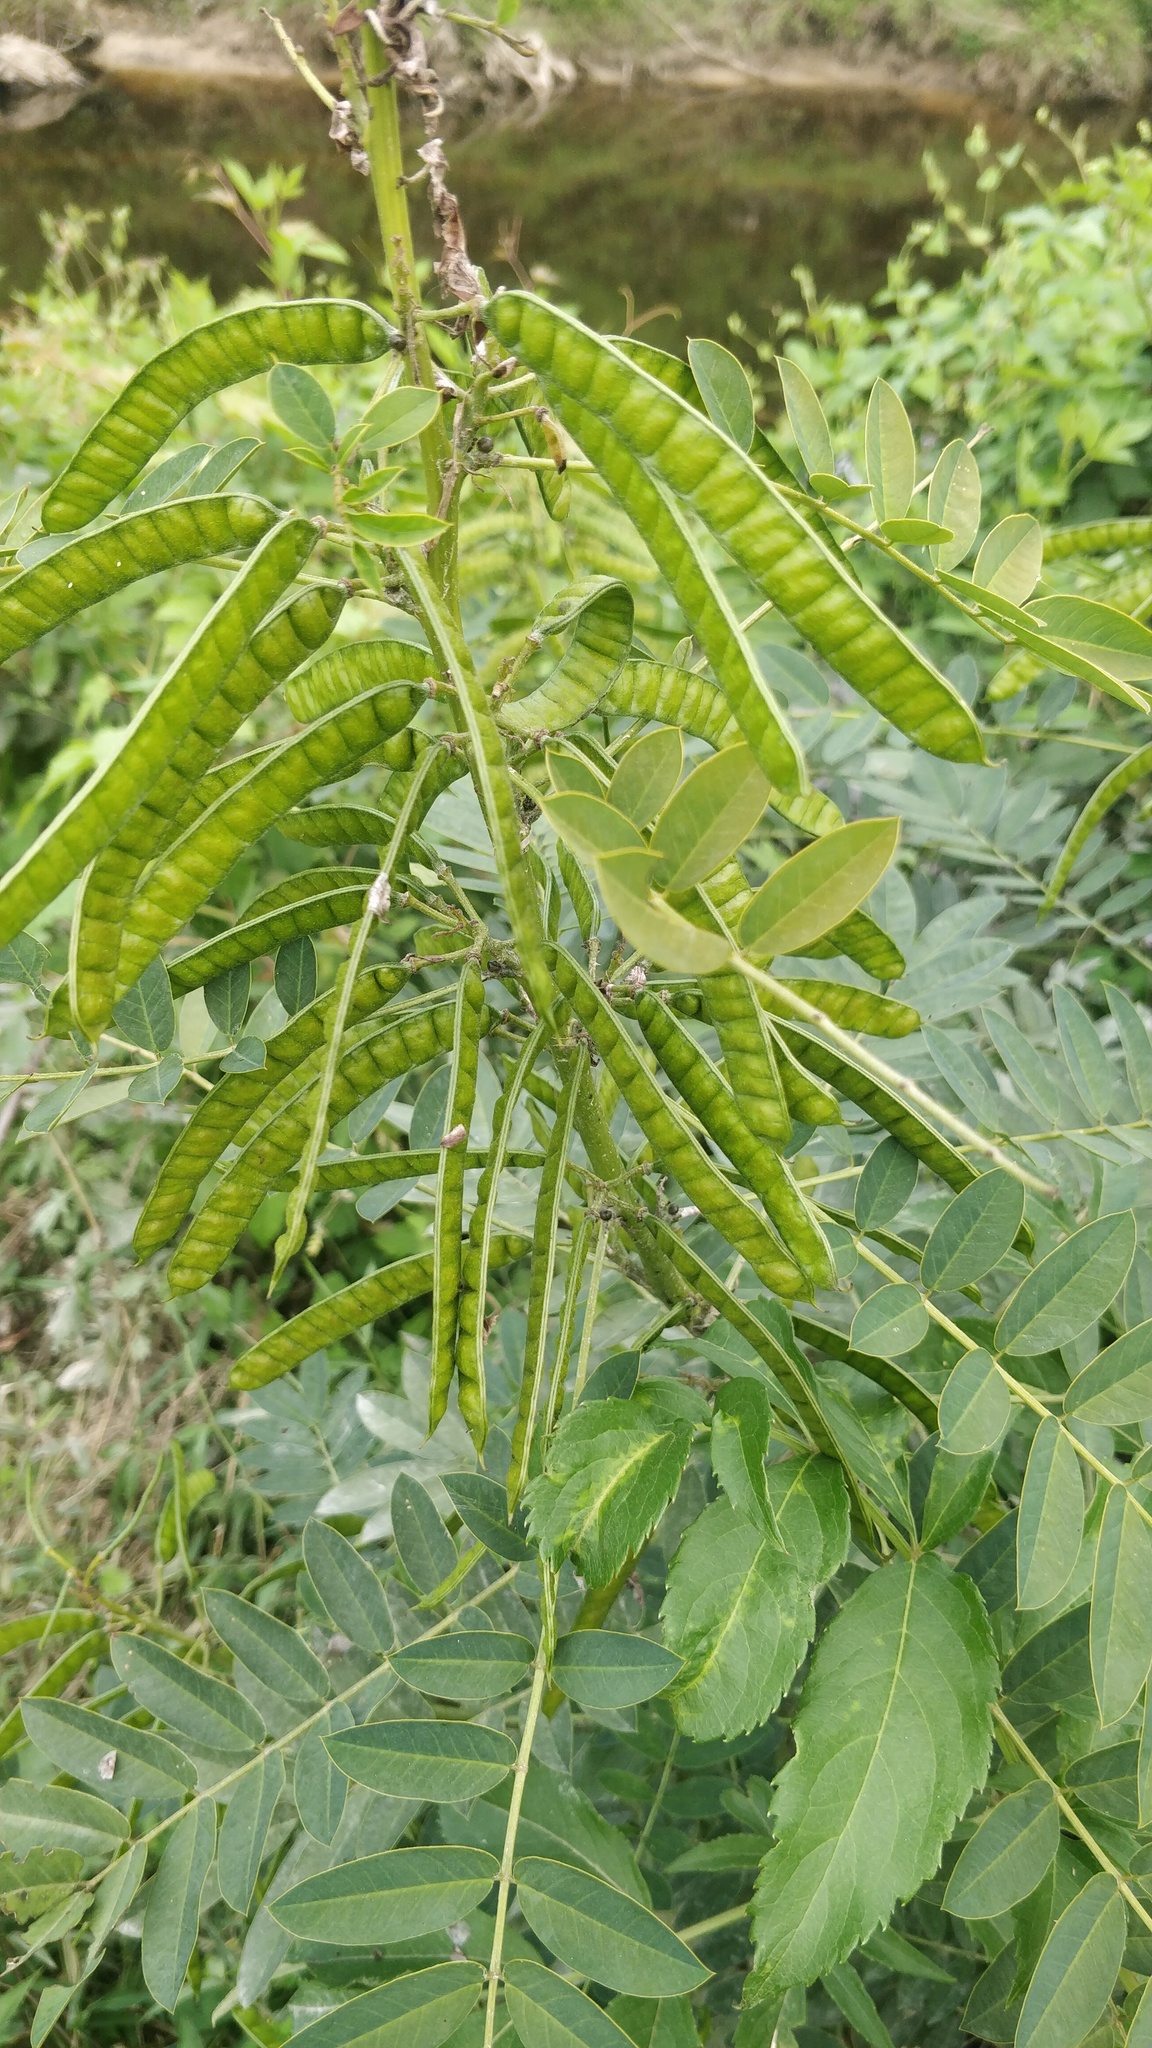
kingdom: Plantae
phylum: Tracheophyta
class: Magnoliopsida
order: Fabales
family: Fabaceae
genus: Senna
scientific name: Senna marilandica
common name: American senna
